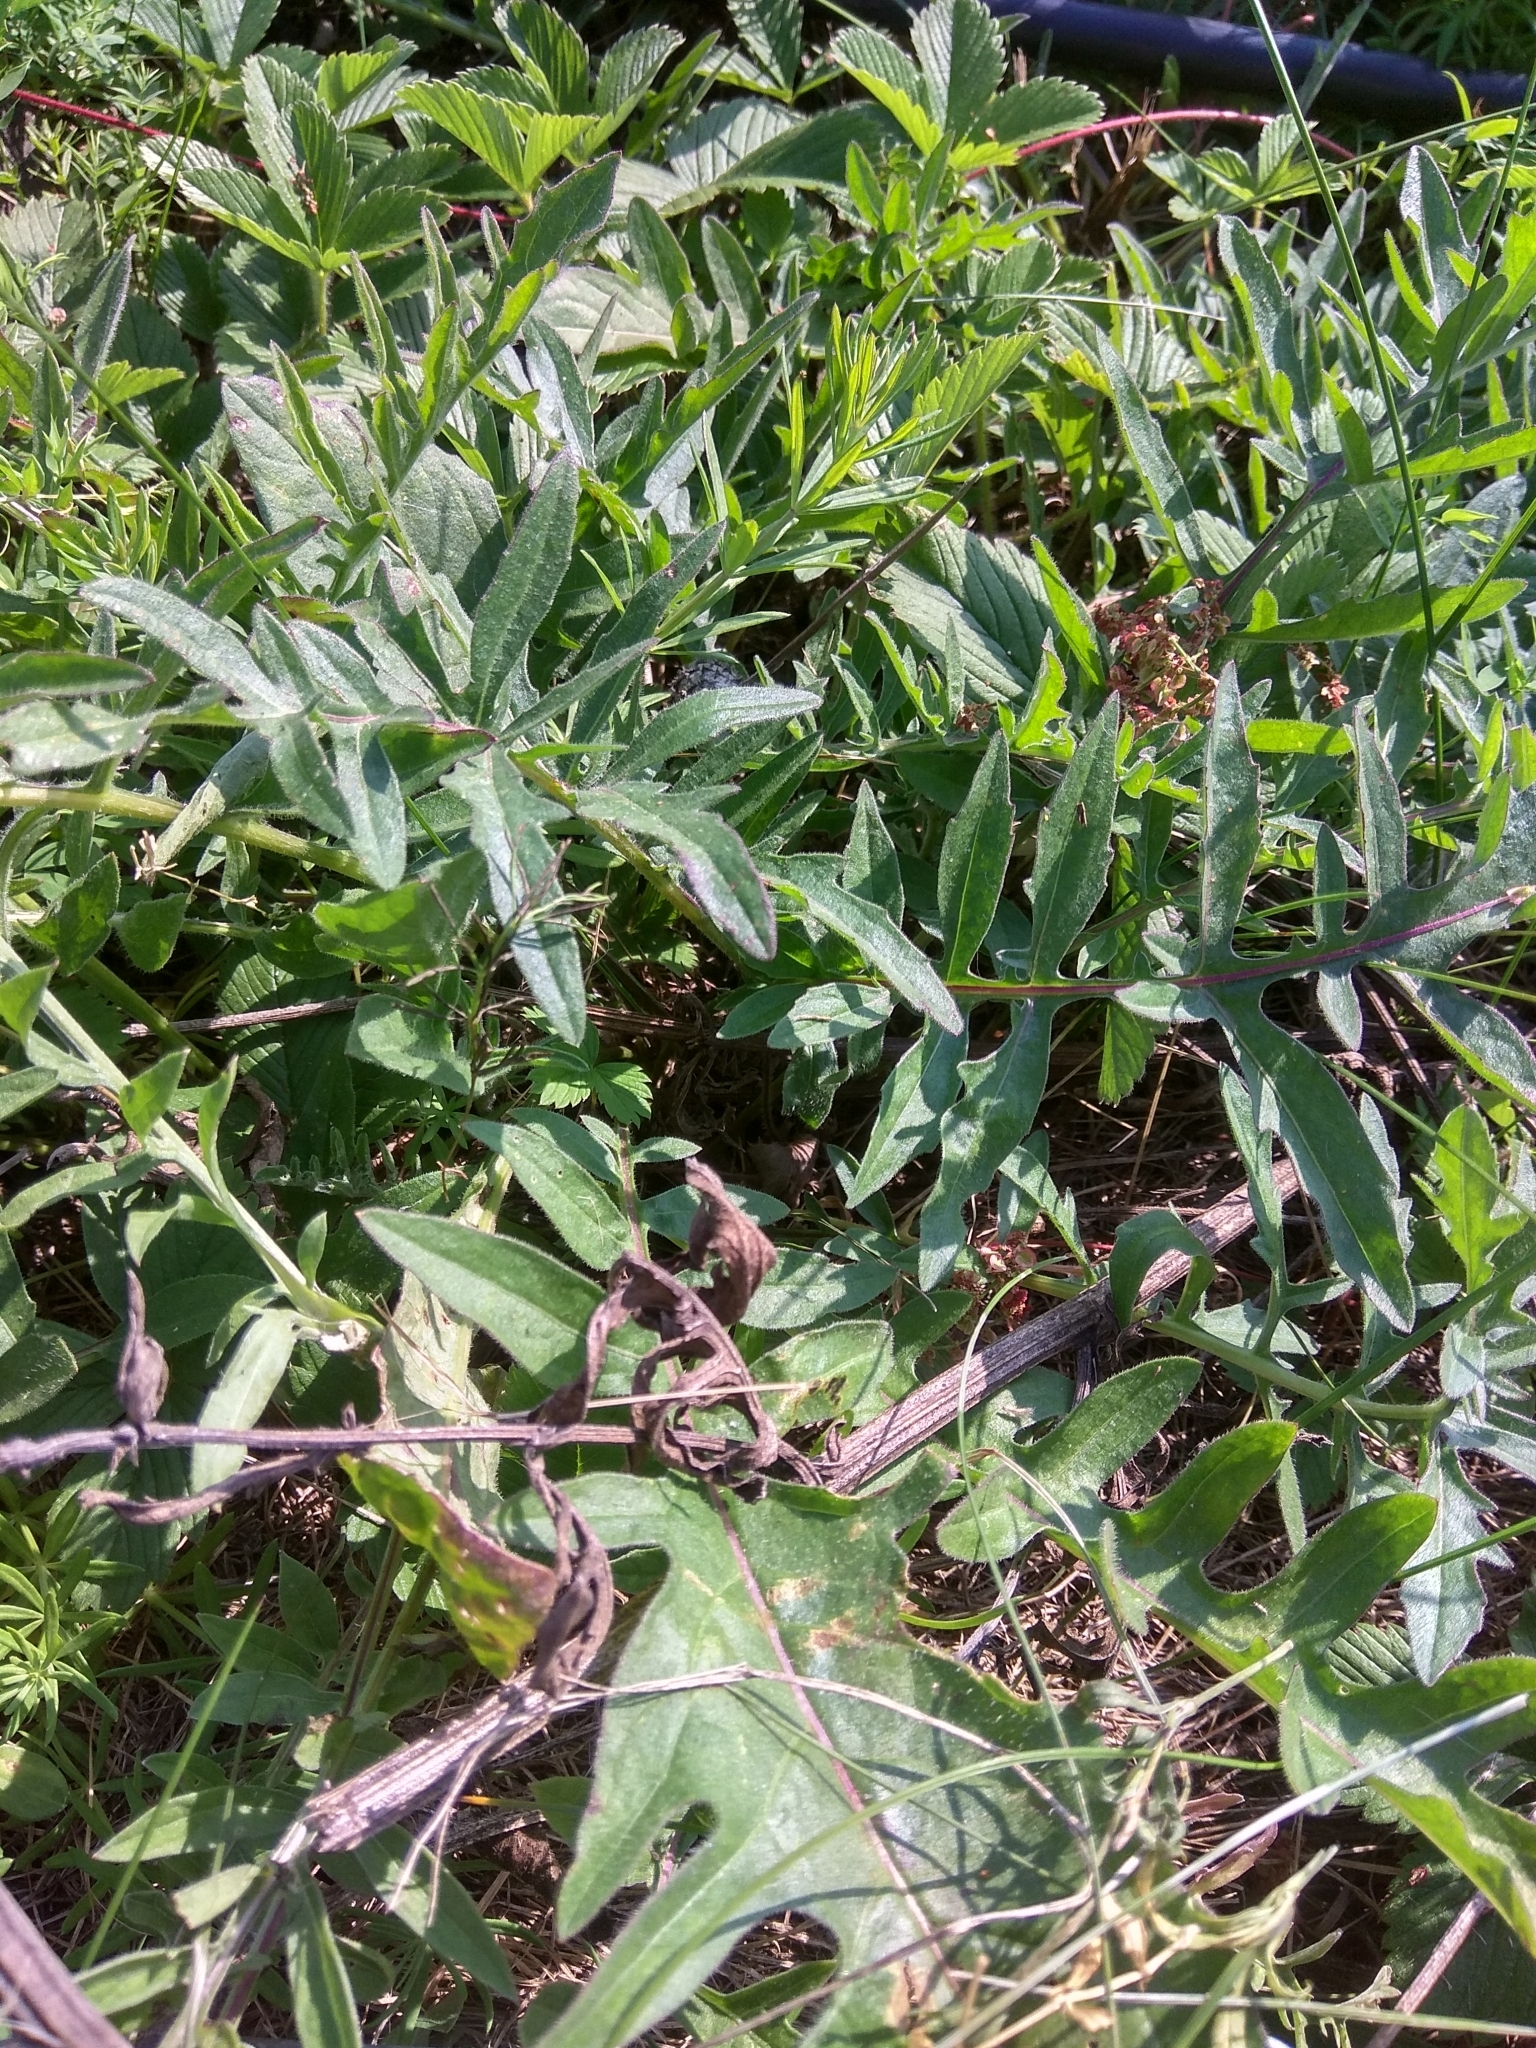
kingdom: Plantae
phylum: Tracheophyta
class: Magnoliopsida
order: Asterales
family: Asteraceae
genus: Centaurea
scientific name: Centaurea scabiosa
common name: Greater knapweed
